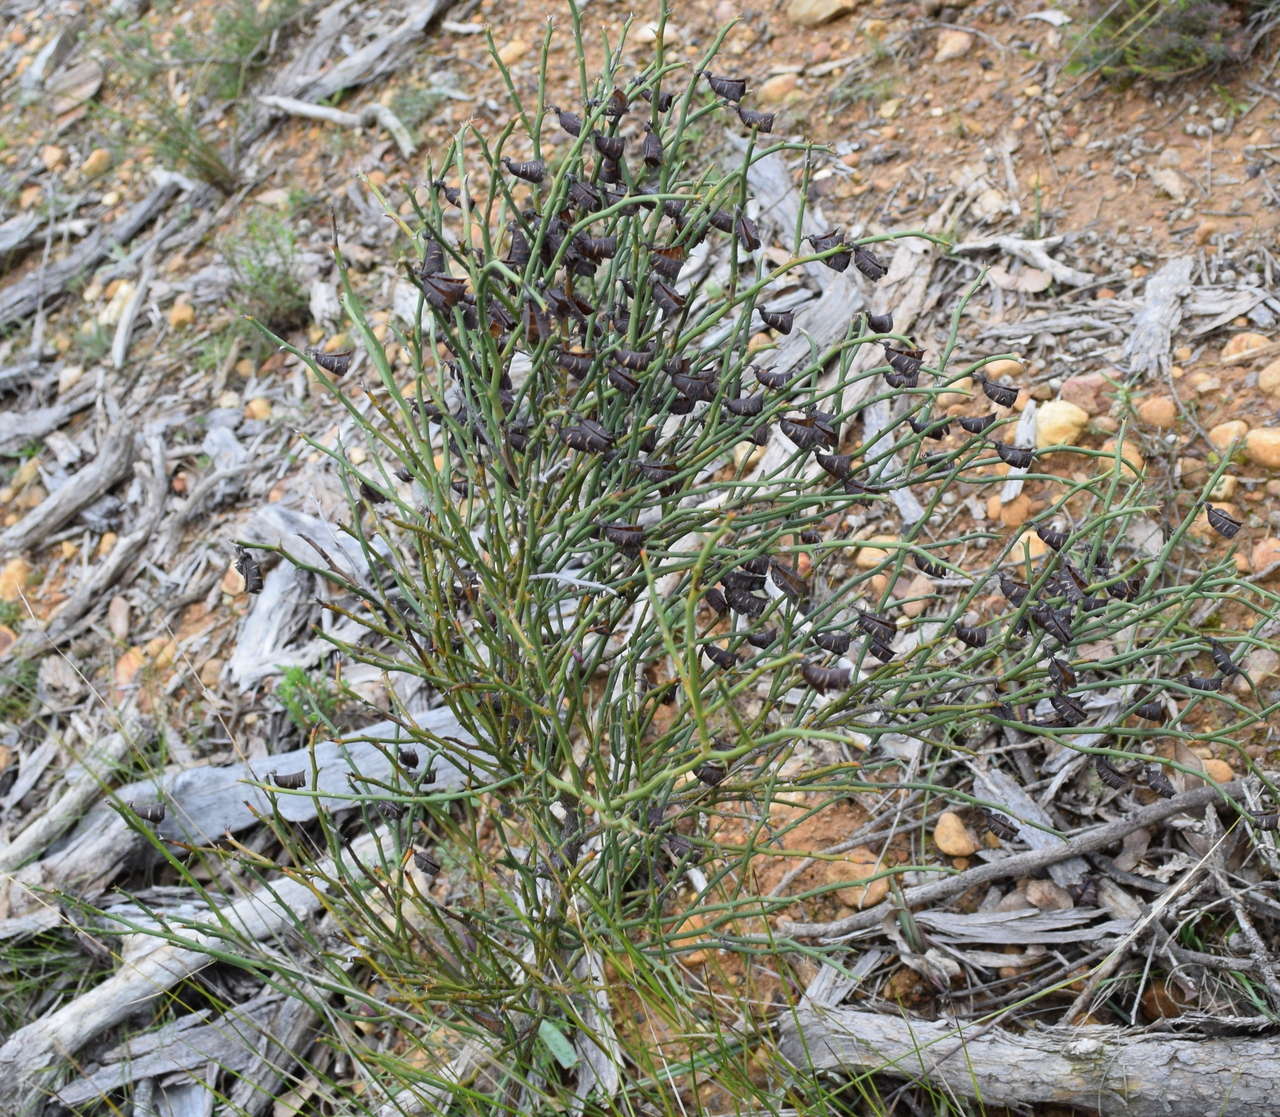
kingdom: Plantae
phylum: Tracheophyta
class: Magnoliopsida
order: Fabales
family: Fabaceae
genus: Daviesia
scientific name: Daviesia brevifolia
